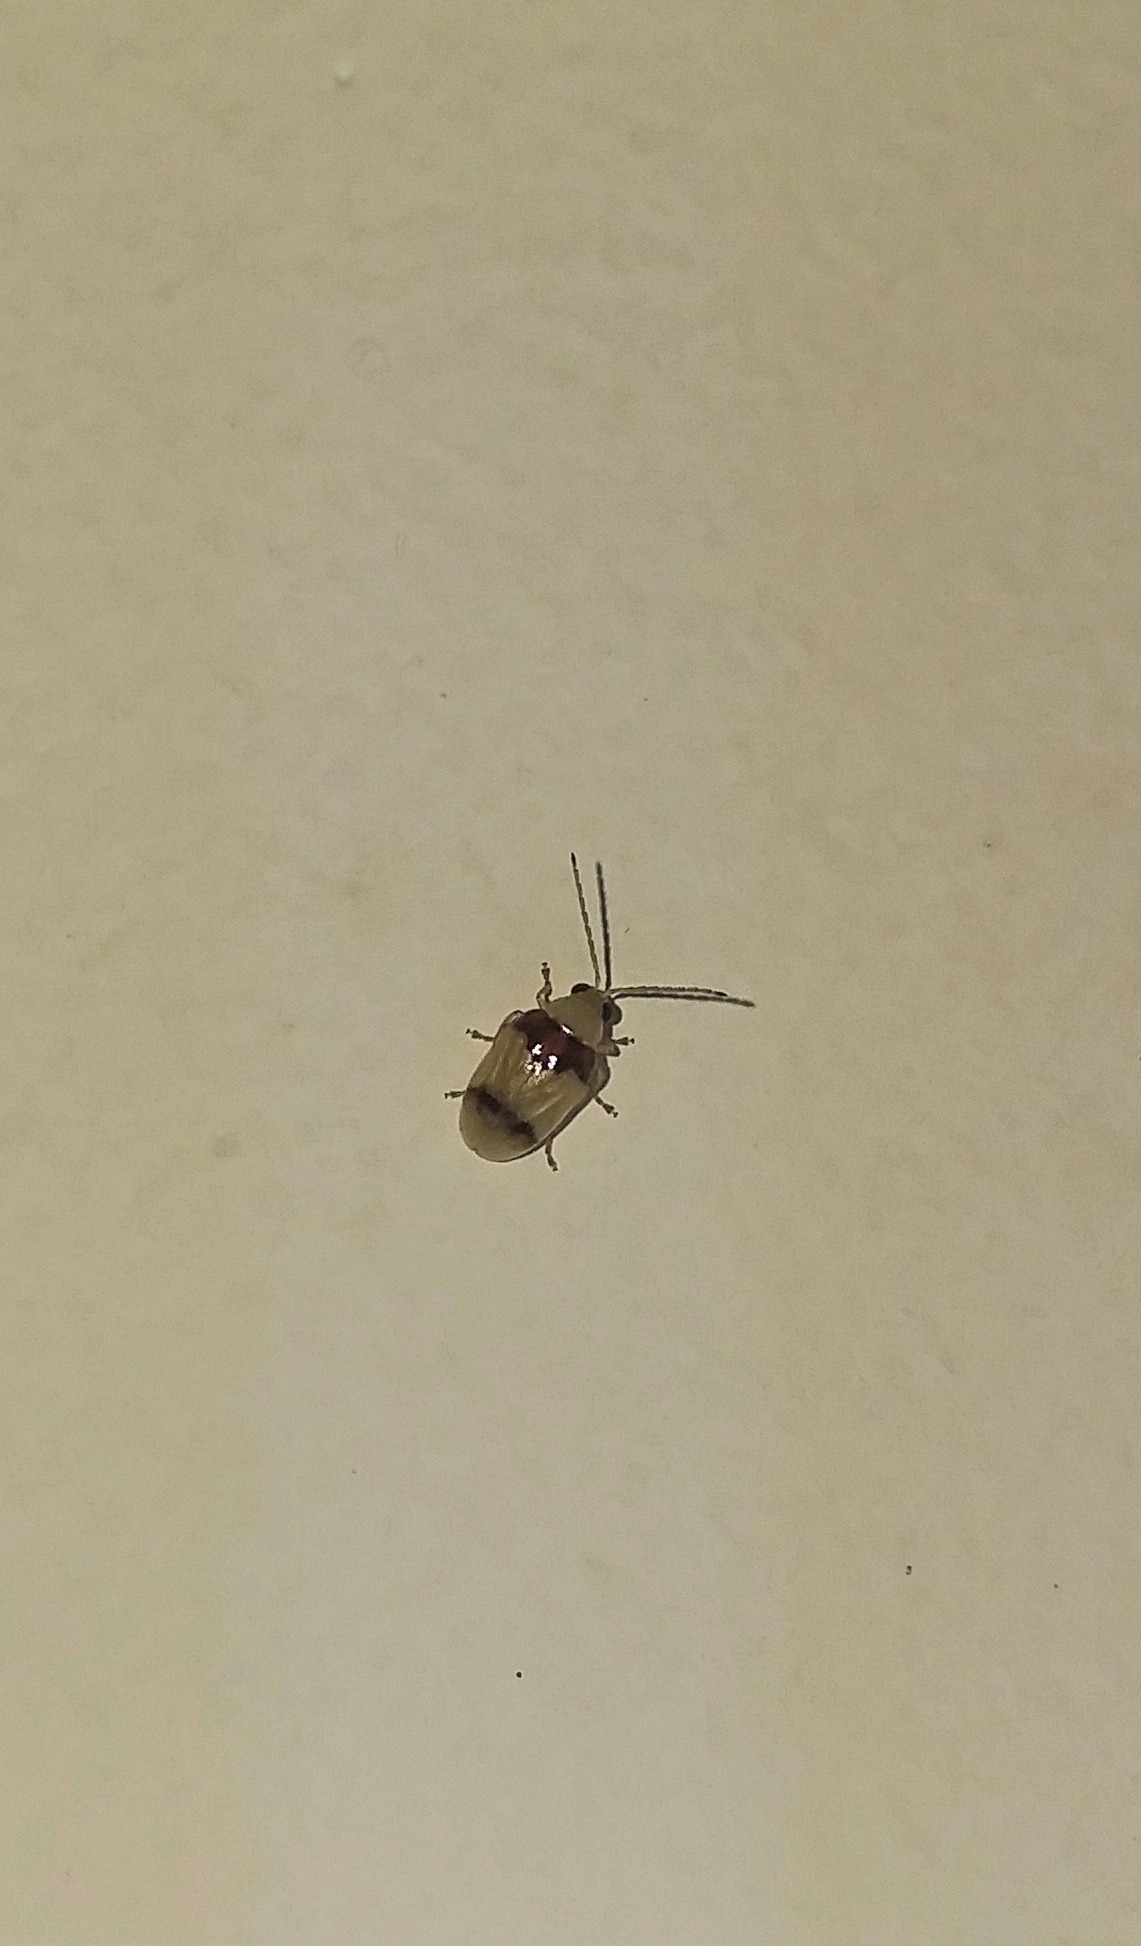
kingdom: Animalia
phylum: Arthropoda
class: Insecta
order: Coleoptera
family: Chrysomelidae
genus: Monolepta
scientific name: Monolepta
